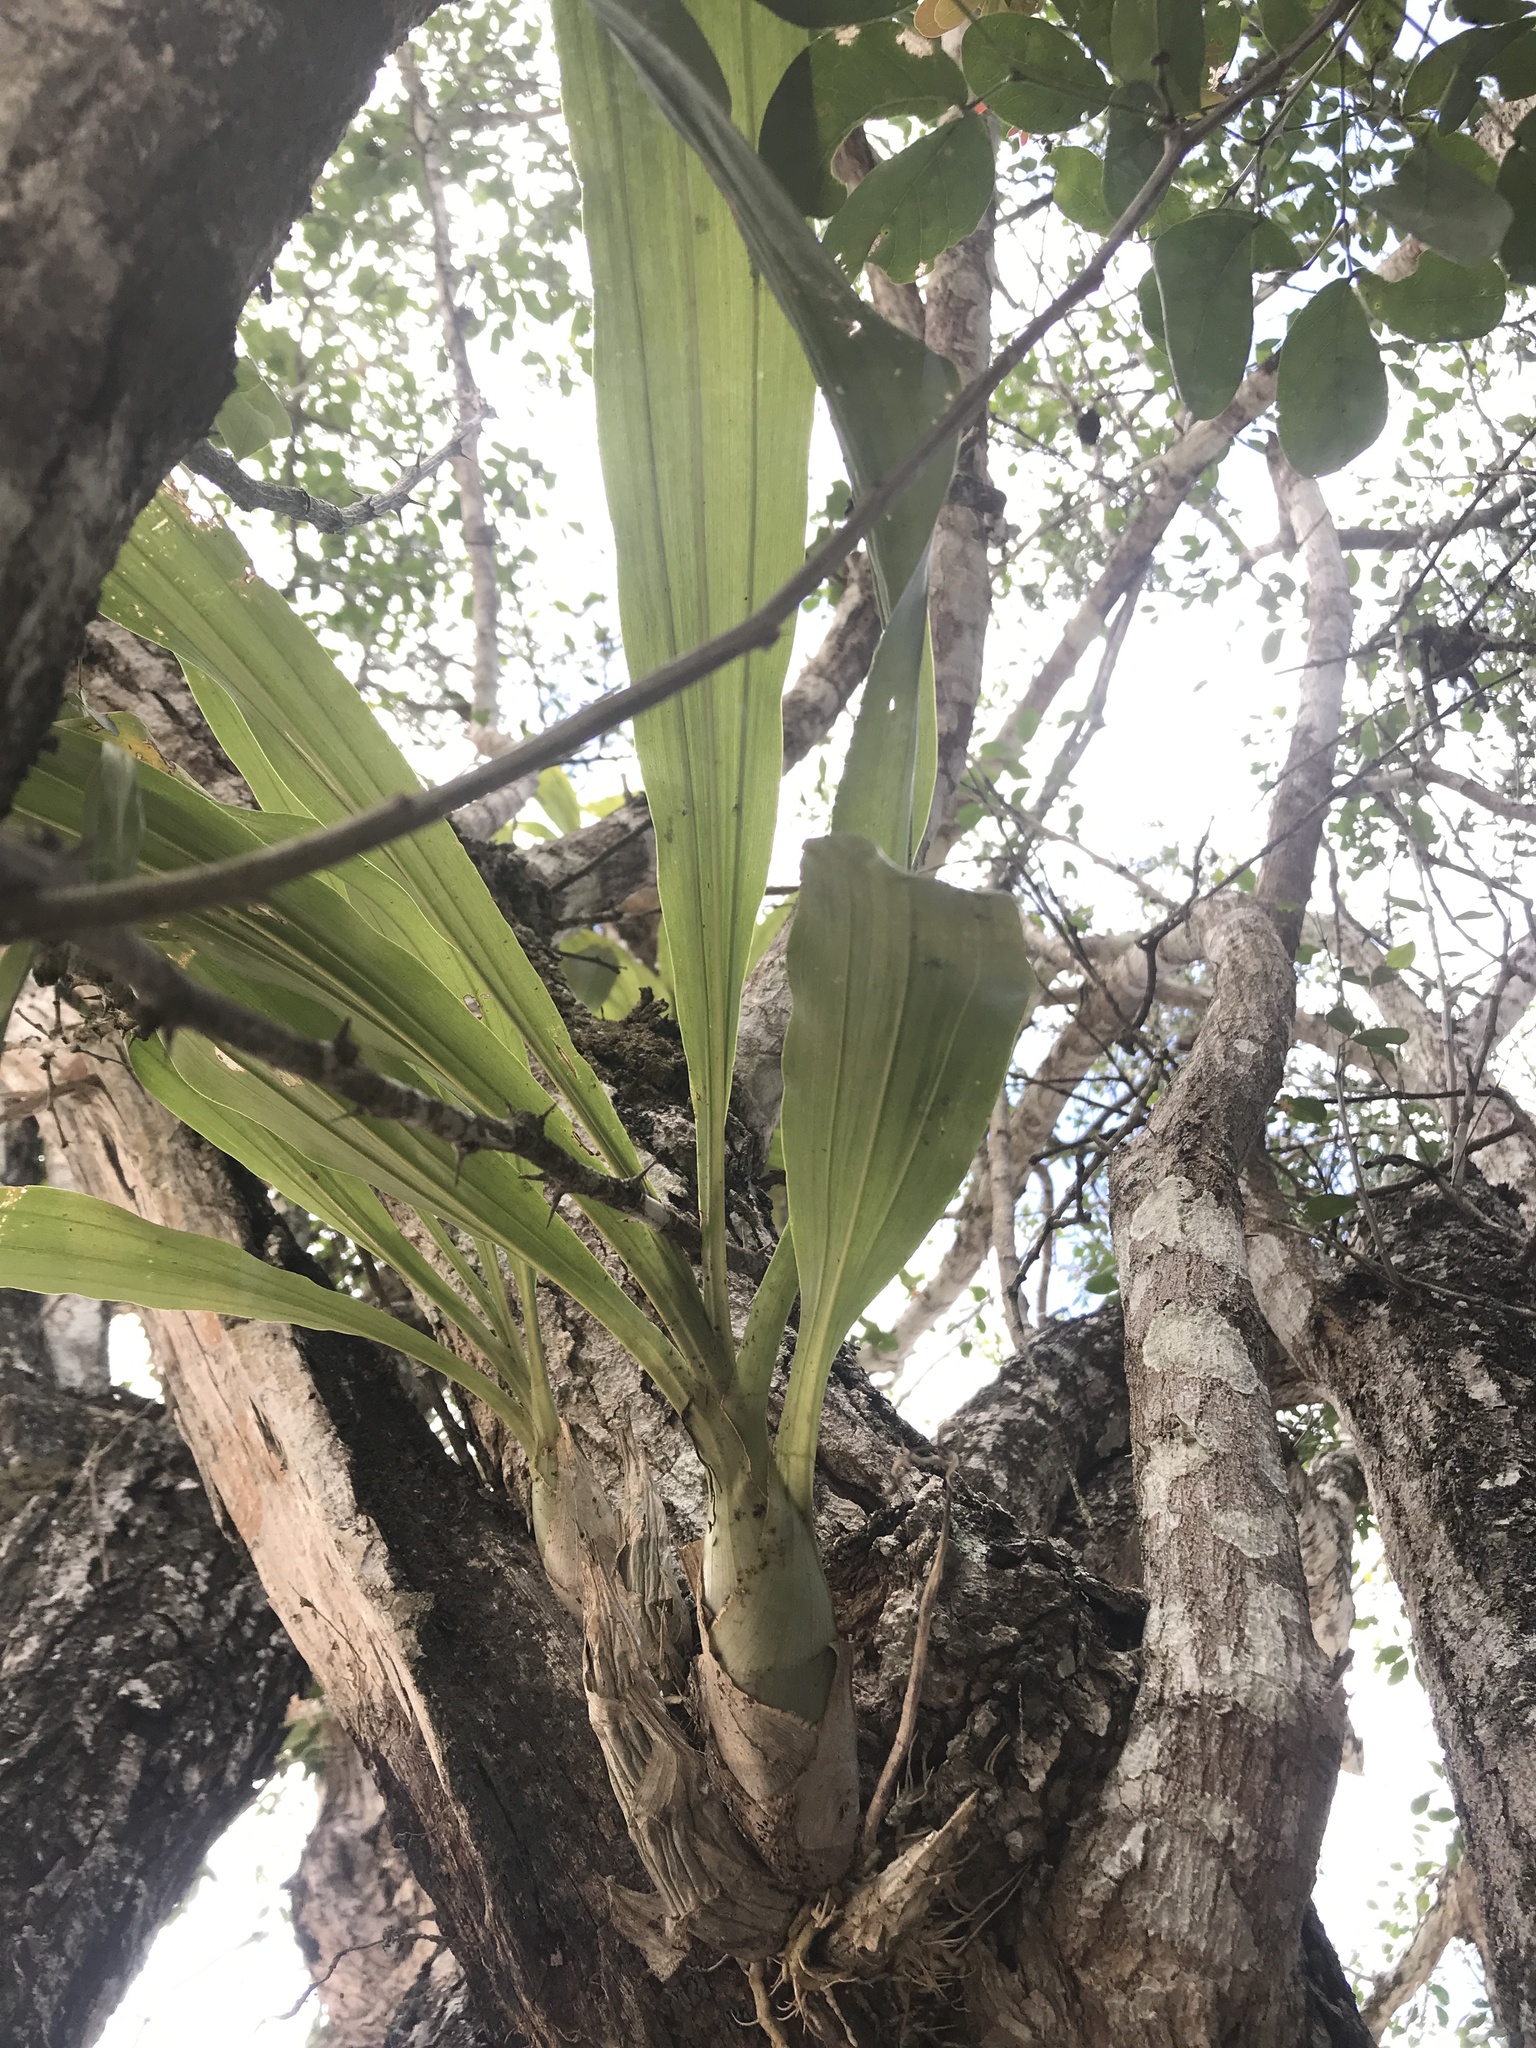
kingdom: Plantae
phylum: Tracheophyta
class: Liliopsida
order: Asparagales
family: Orchidaceae
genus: Catasetum
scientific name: Catasetum integerrimum
